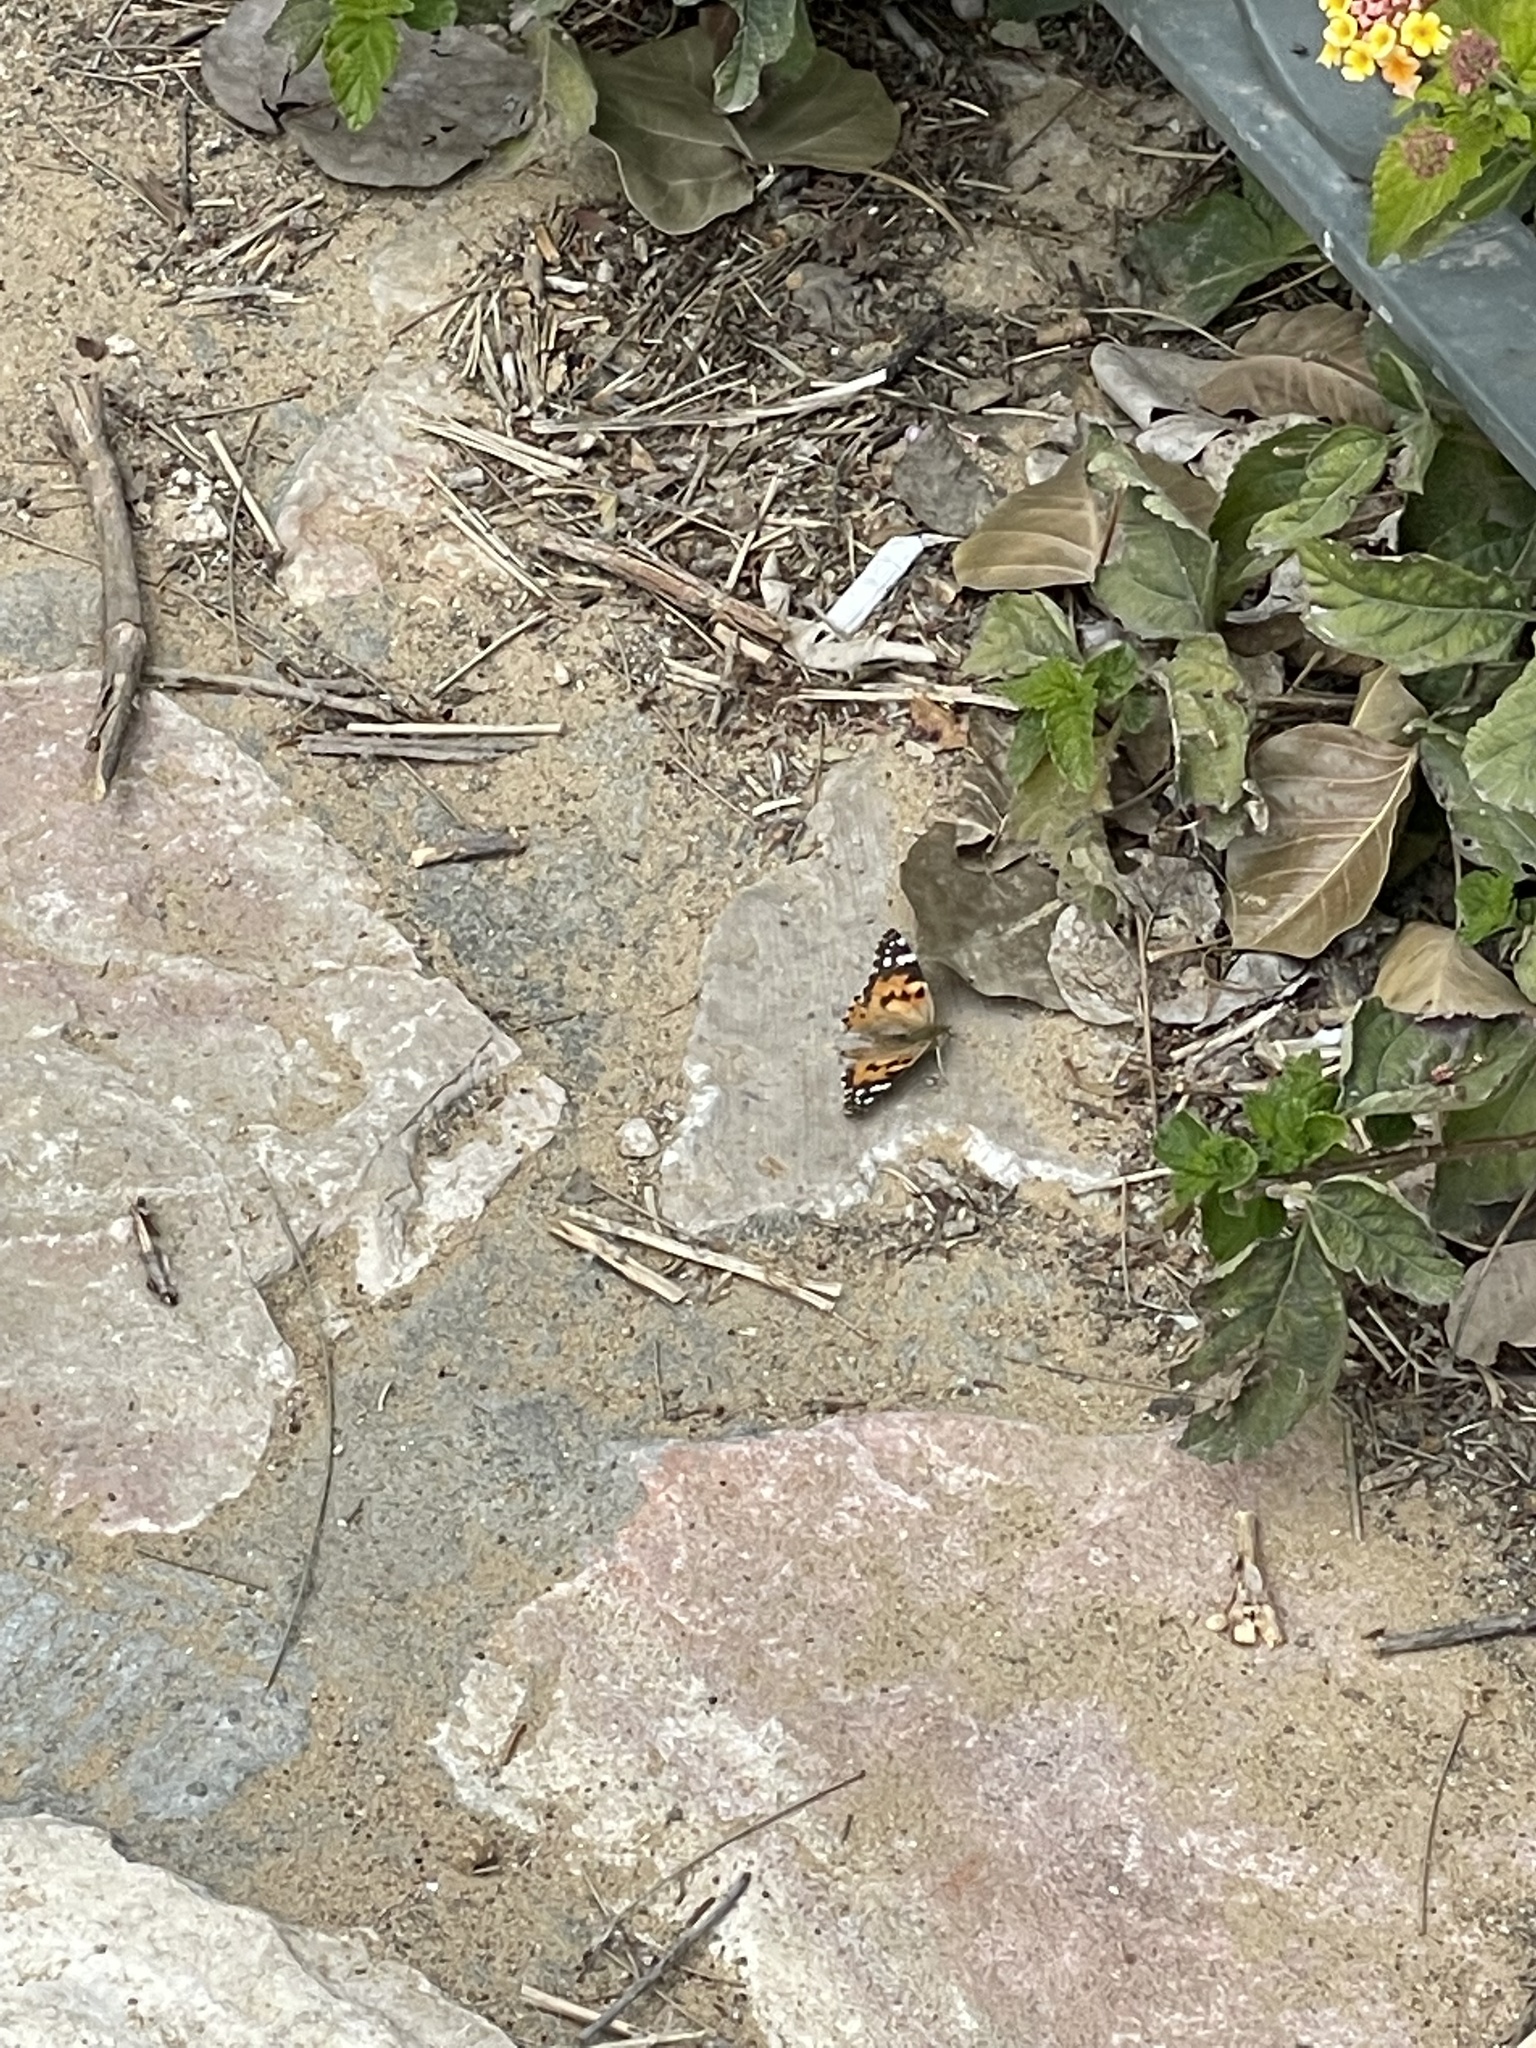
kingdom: Animalia
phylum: Arthropoda
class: Insecta
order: Lepidoptera
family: Nymphalidae
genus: Vanessa
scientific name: Vanessa cardui
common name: Painted lady
